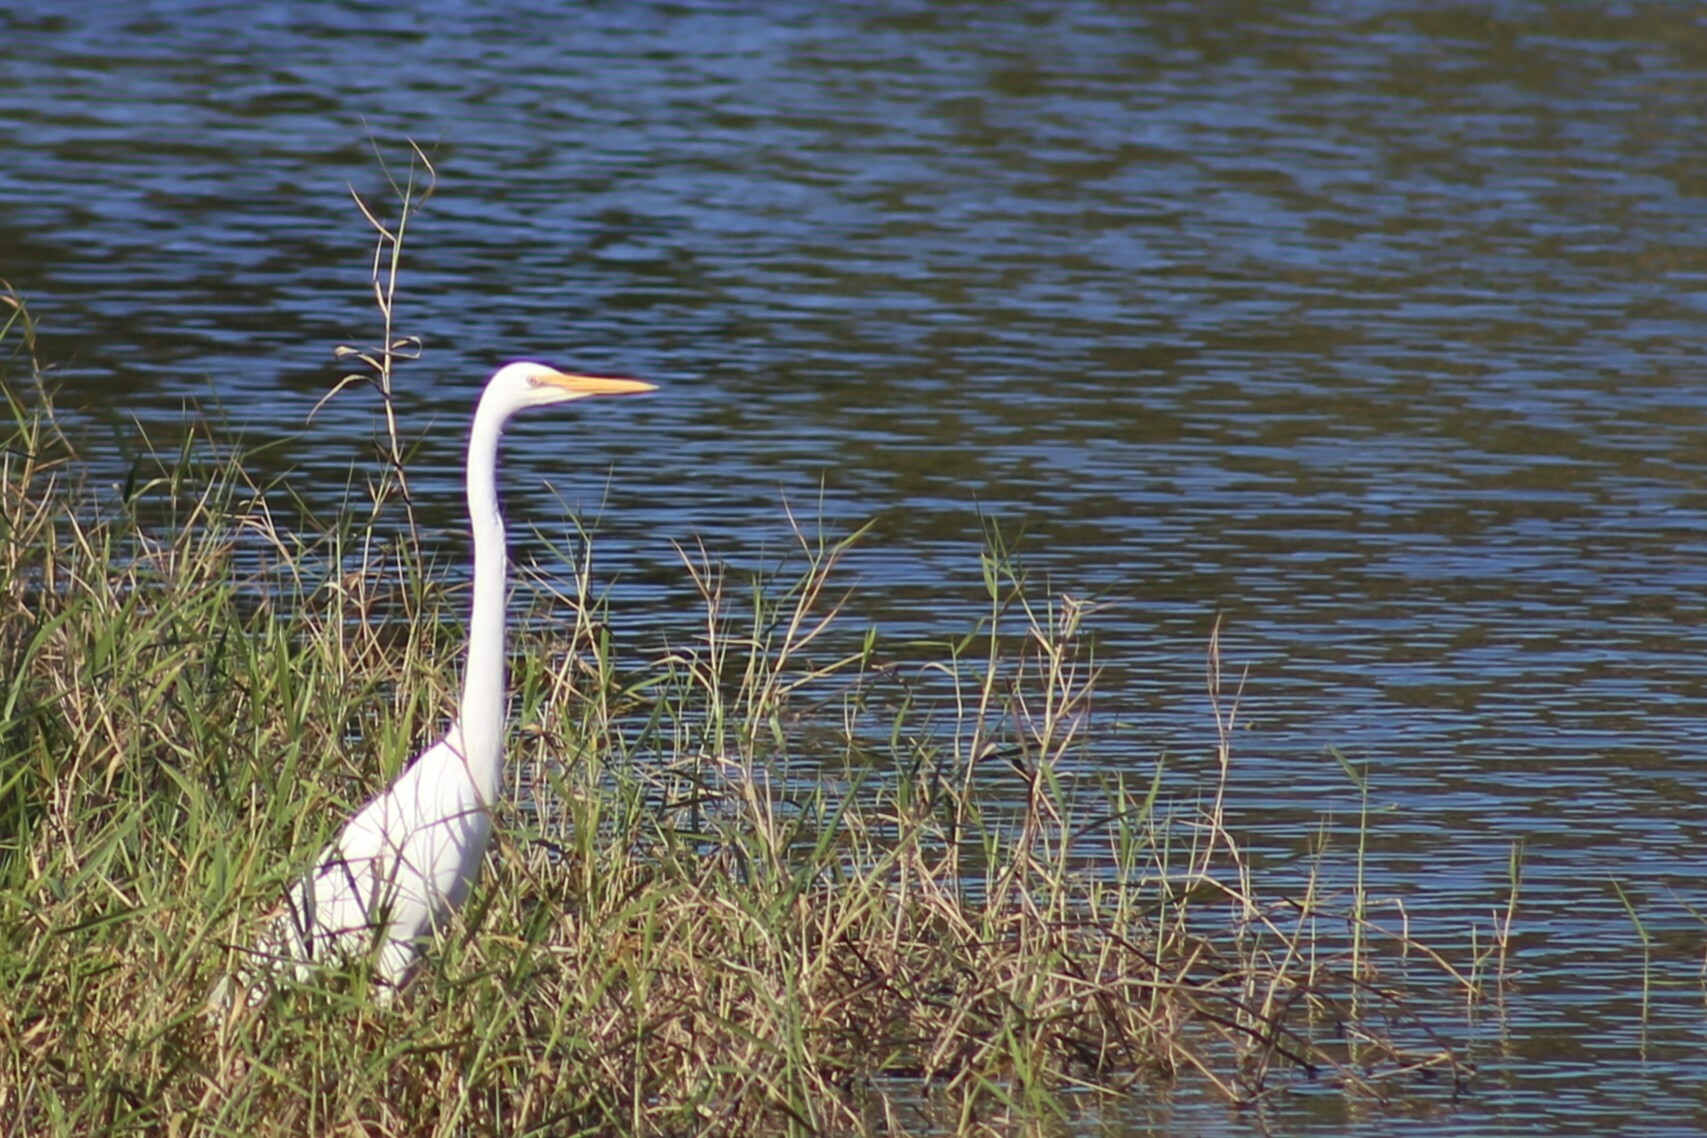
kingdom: Animalia
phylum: Chordata
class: Aves
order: Pelecaniformes
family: Ardeidae
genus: Ardea
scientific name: Ardea alba
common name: Great egret
